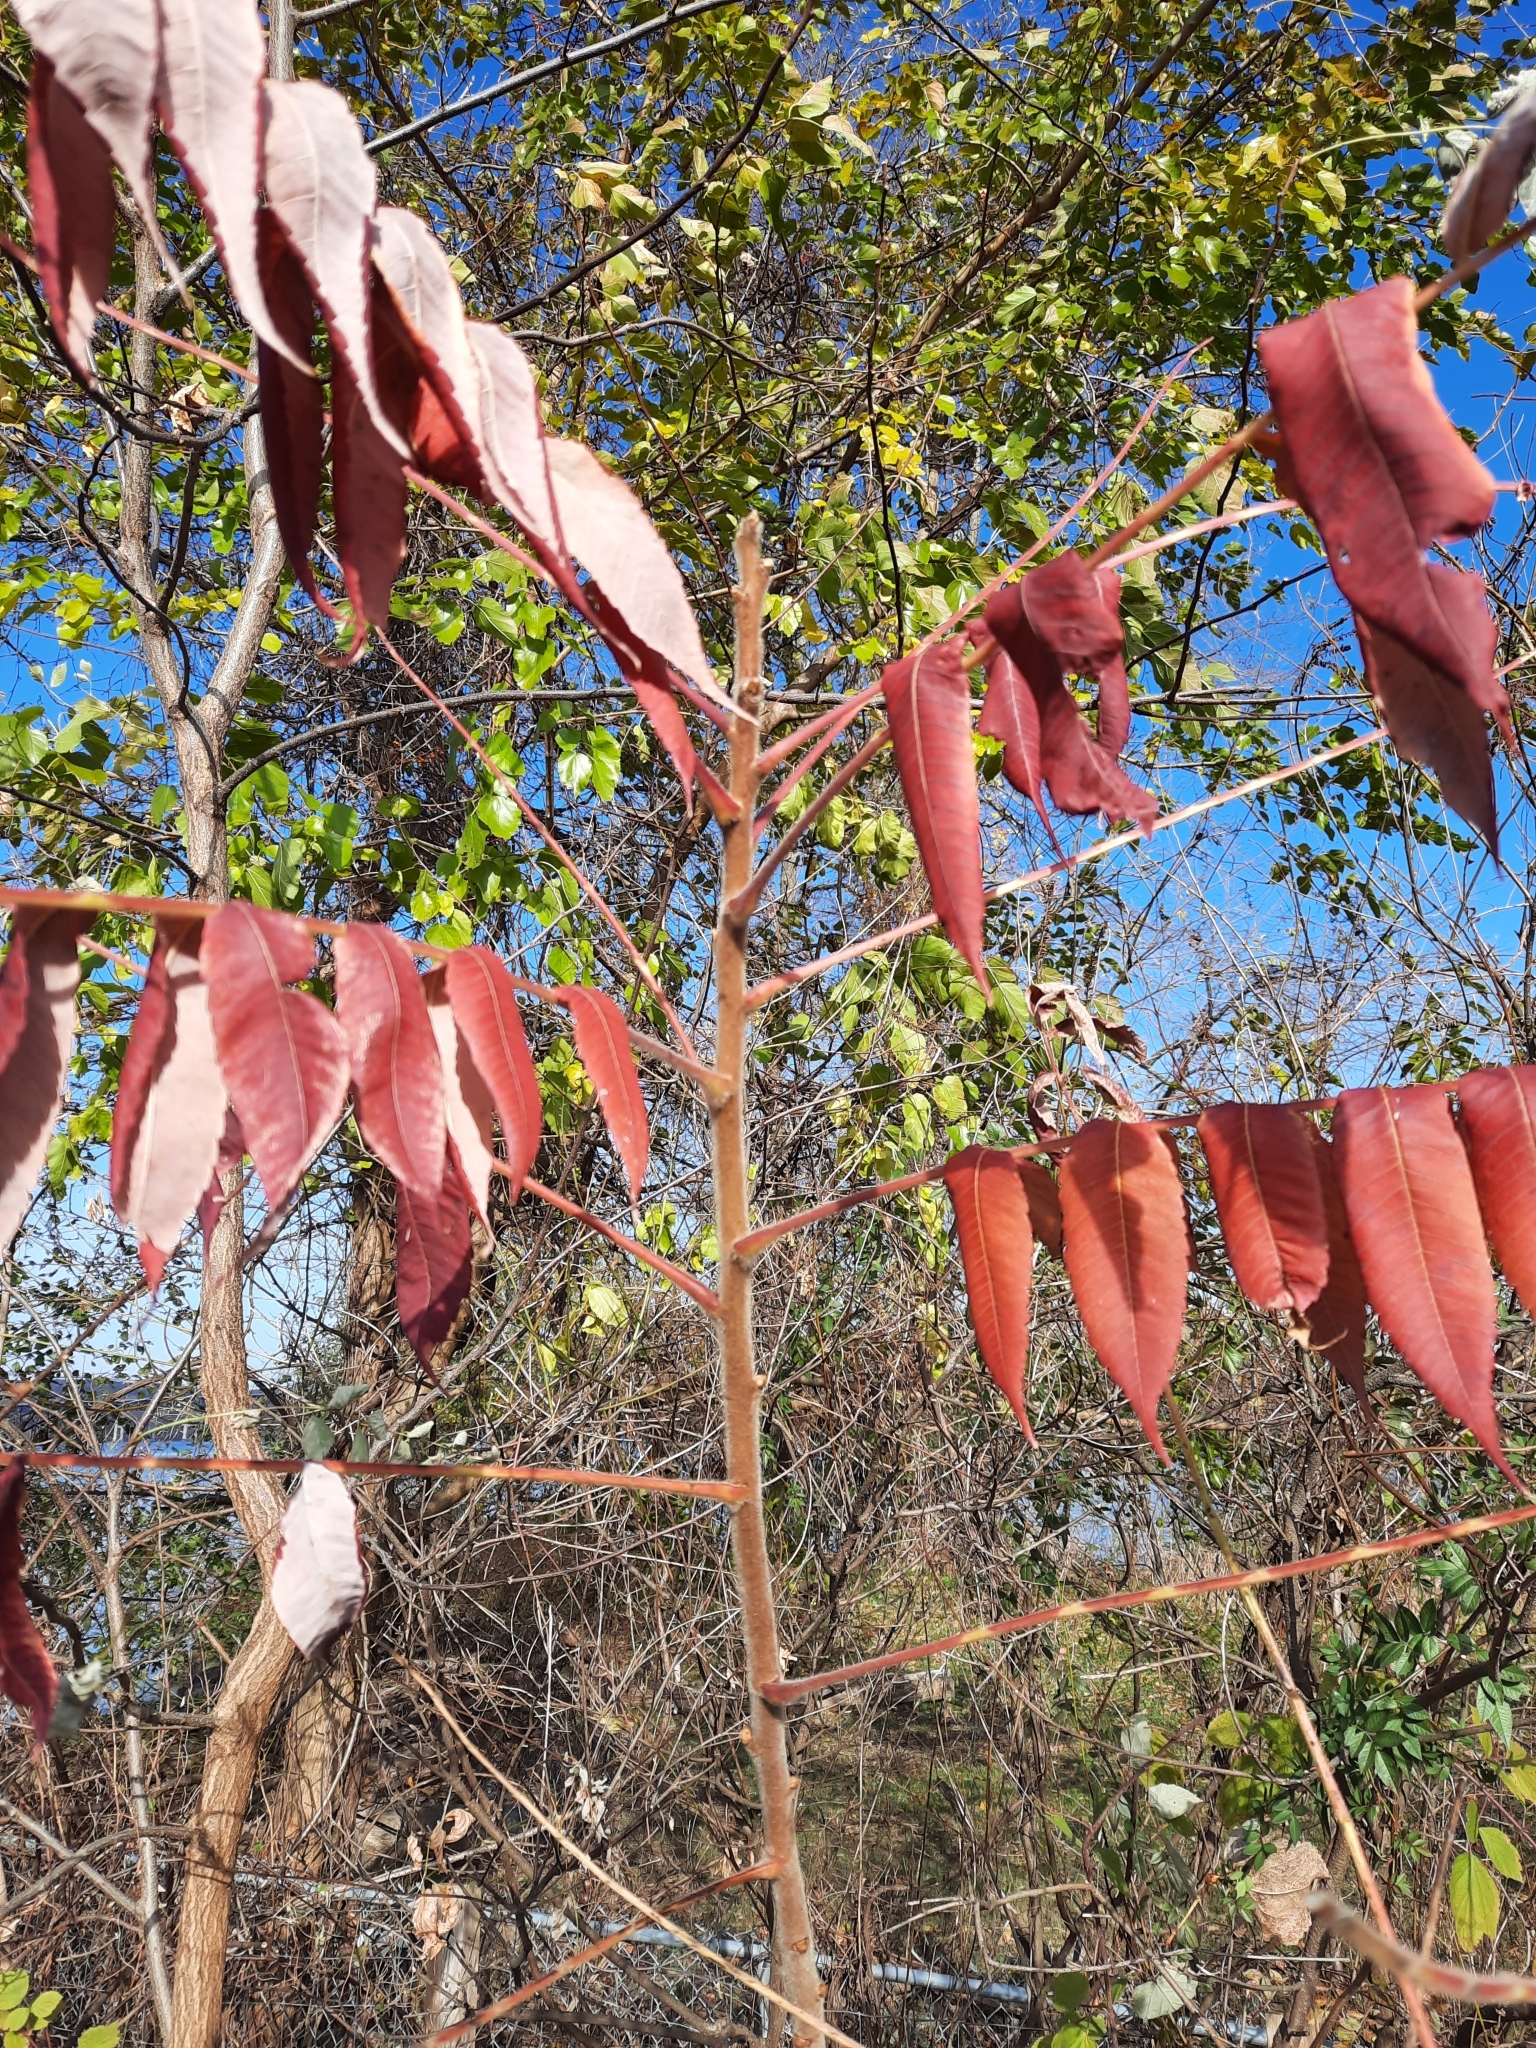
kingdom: Plantae
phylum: Tracheophyta
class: Magnoliopsida
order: Sapindales
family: Anacardiaceae
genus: Rhus
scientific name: Rhus typhina
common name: Staghorn sumac
